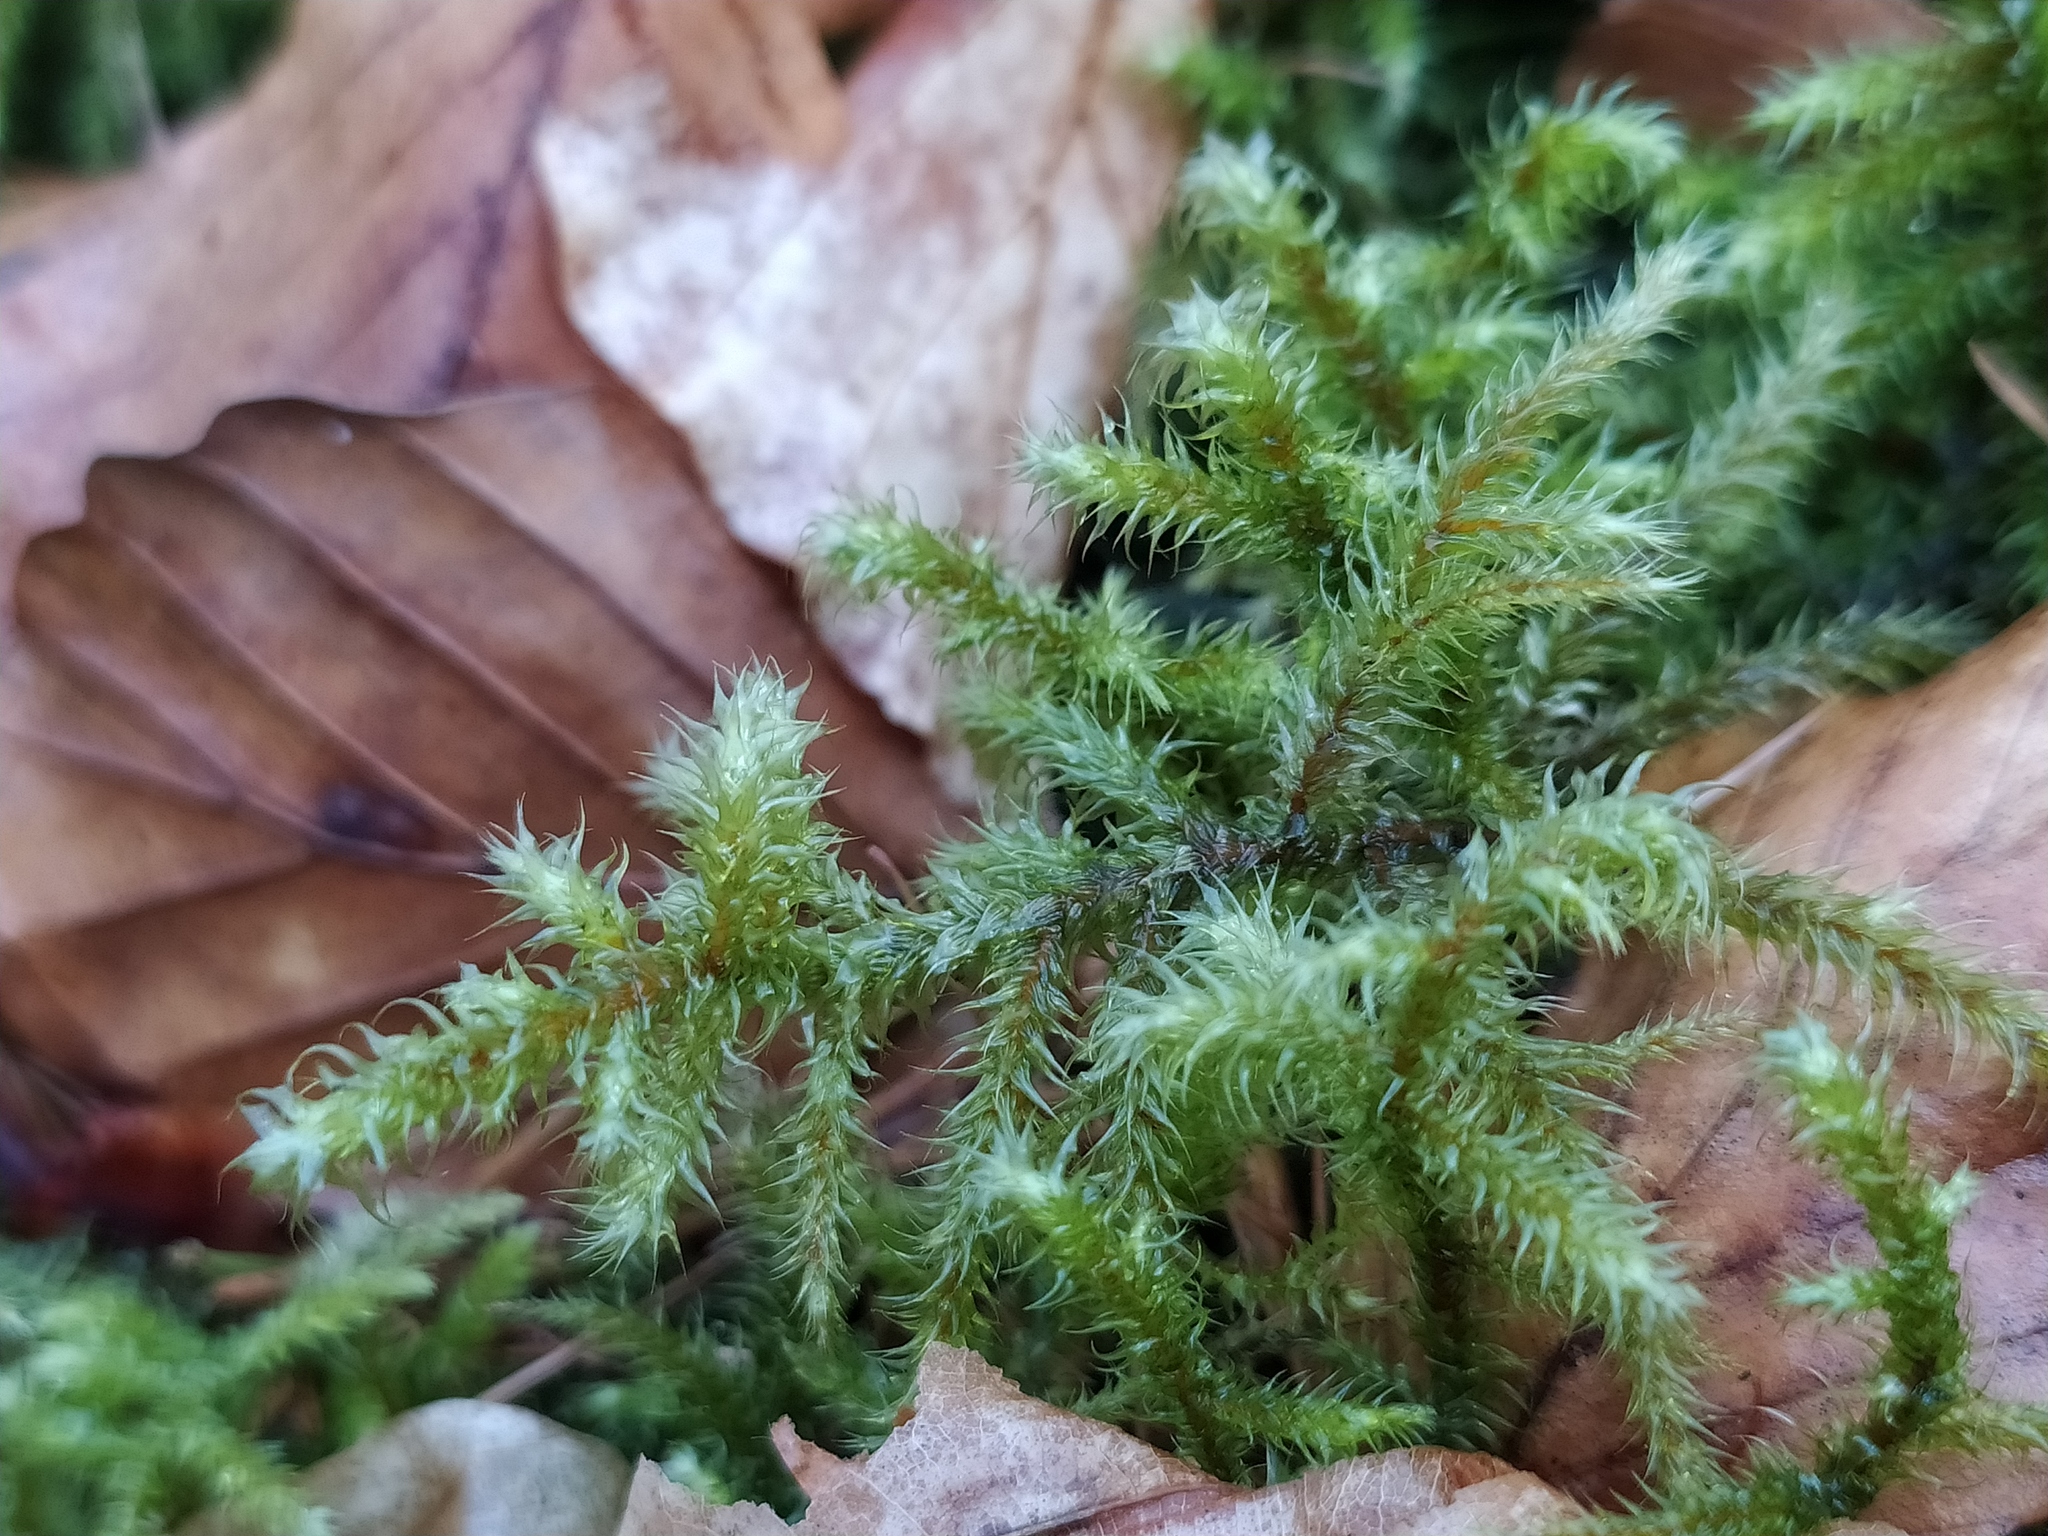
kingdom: Plantae
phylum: Bryophyta
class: Bryopsida
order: Hypnales
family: Hylocomiaceae
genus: Rhytidiadelphus
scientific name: Rhytidiadelphus loreus
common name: Lanky moss
